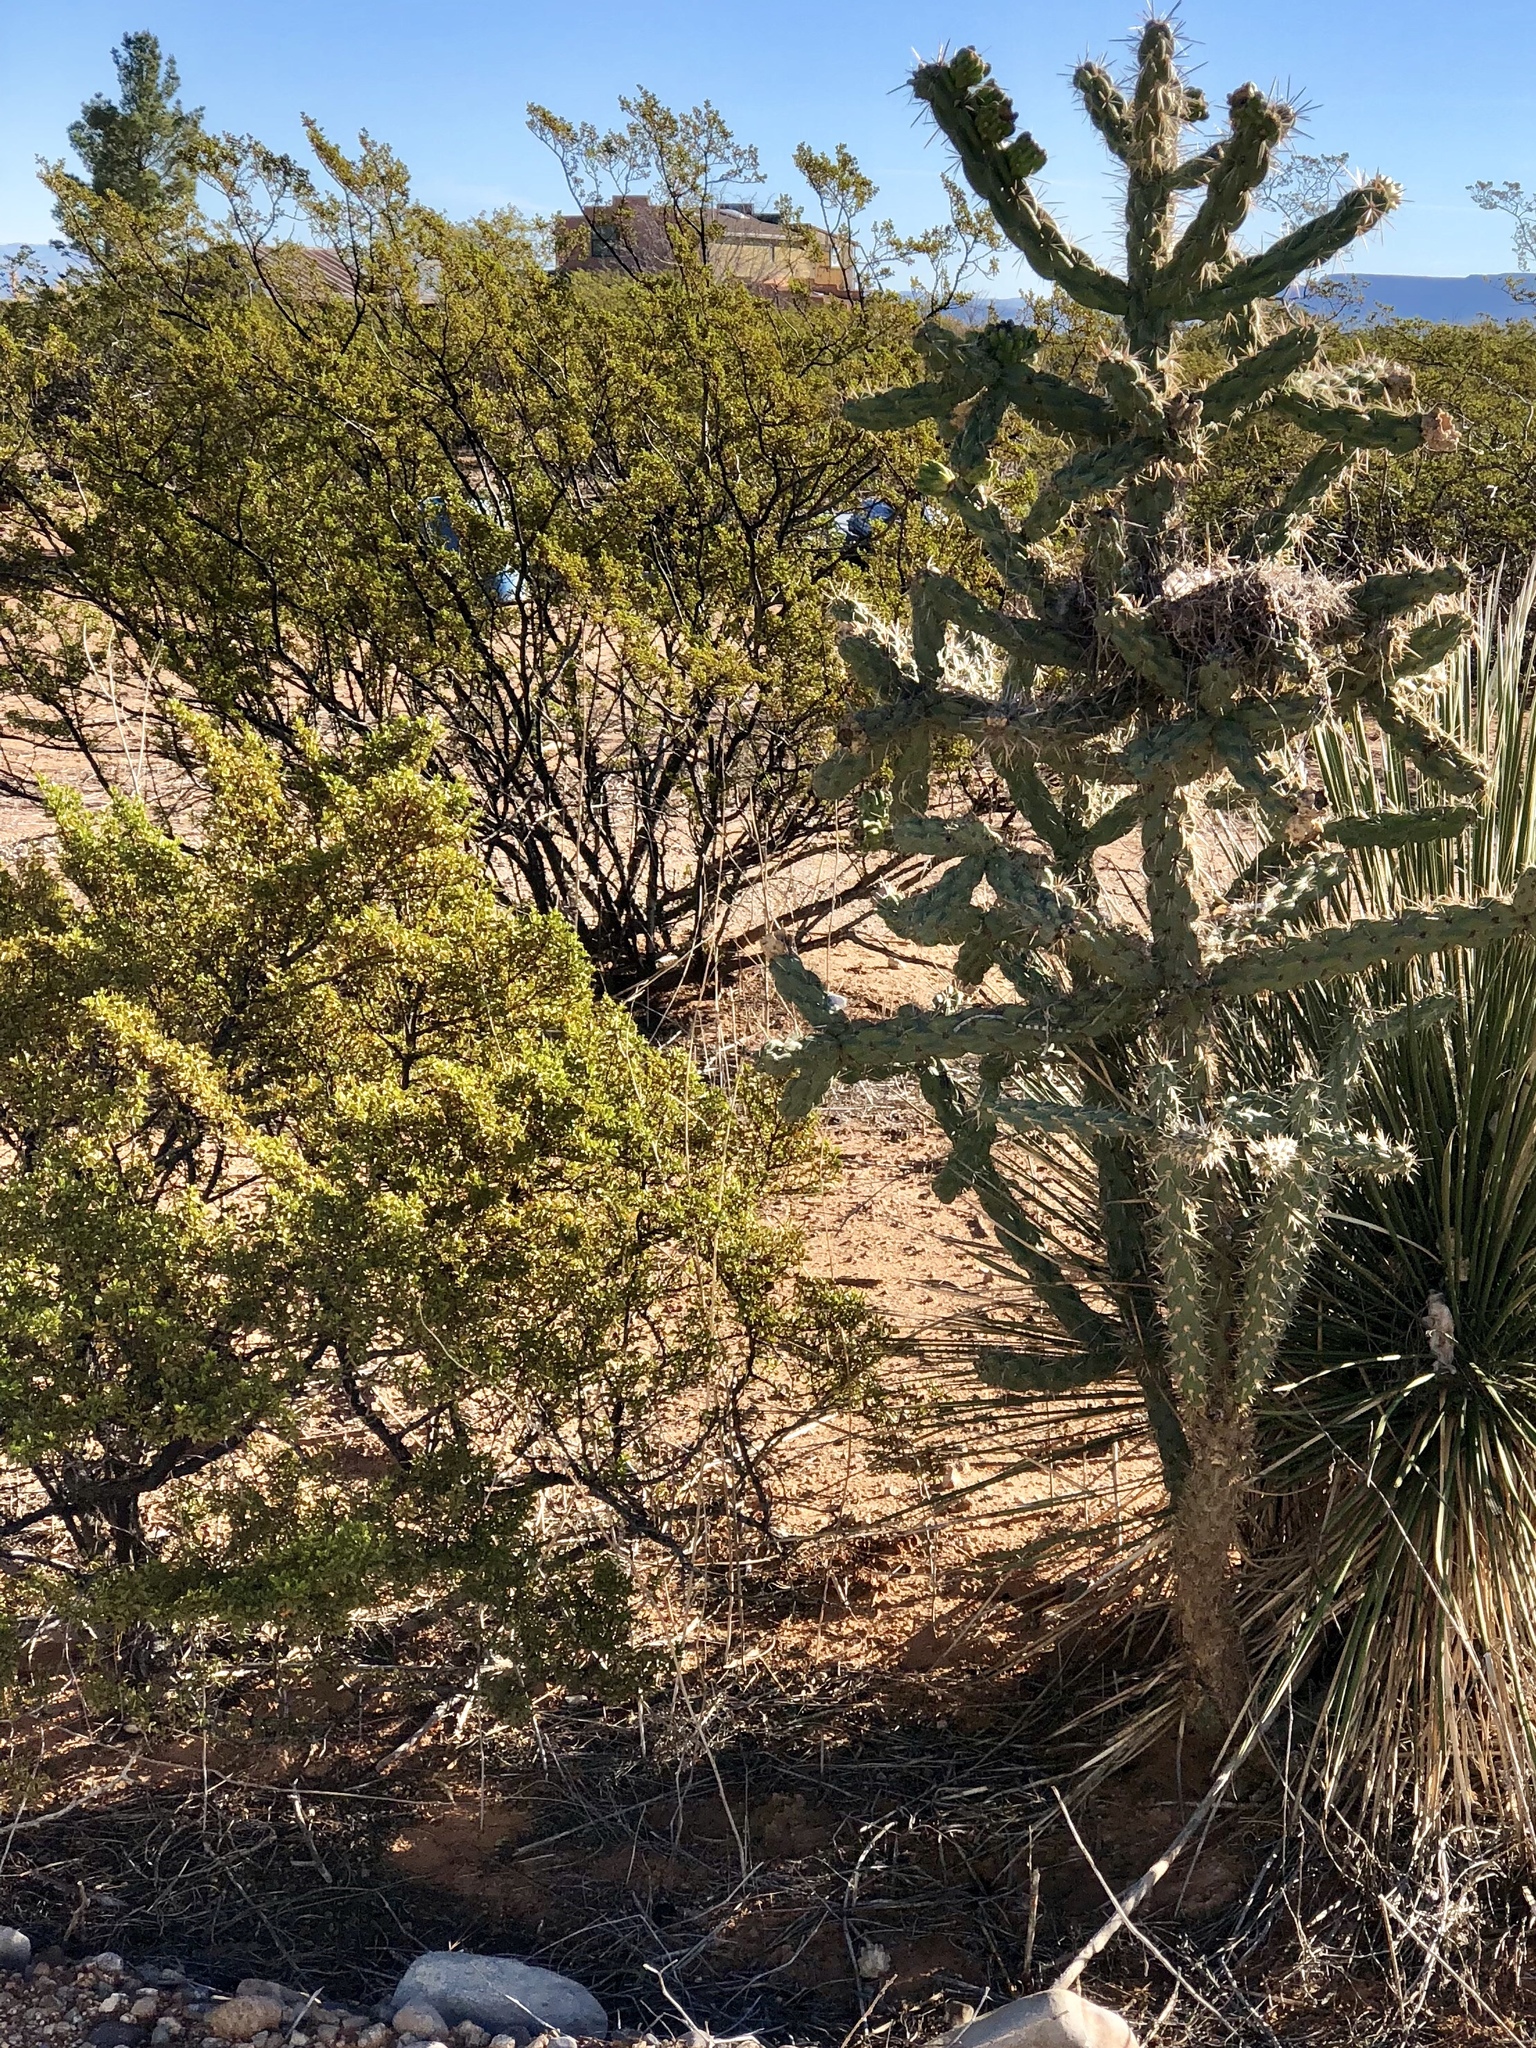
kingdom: Plantae
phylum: Tracheophyta
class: Magnoliopsida
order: Zygophyllales
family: Zygophyllaceae
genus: Larrea
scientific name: Larrea tridentata
